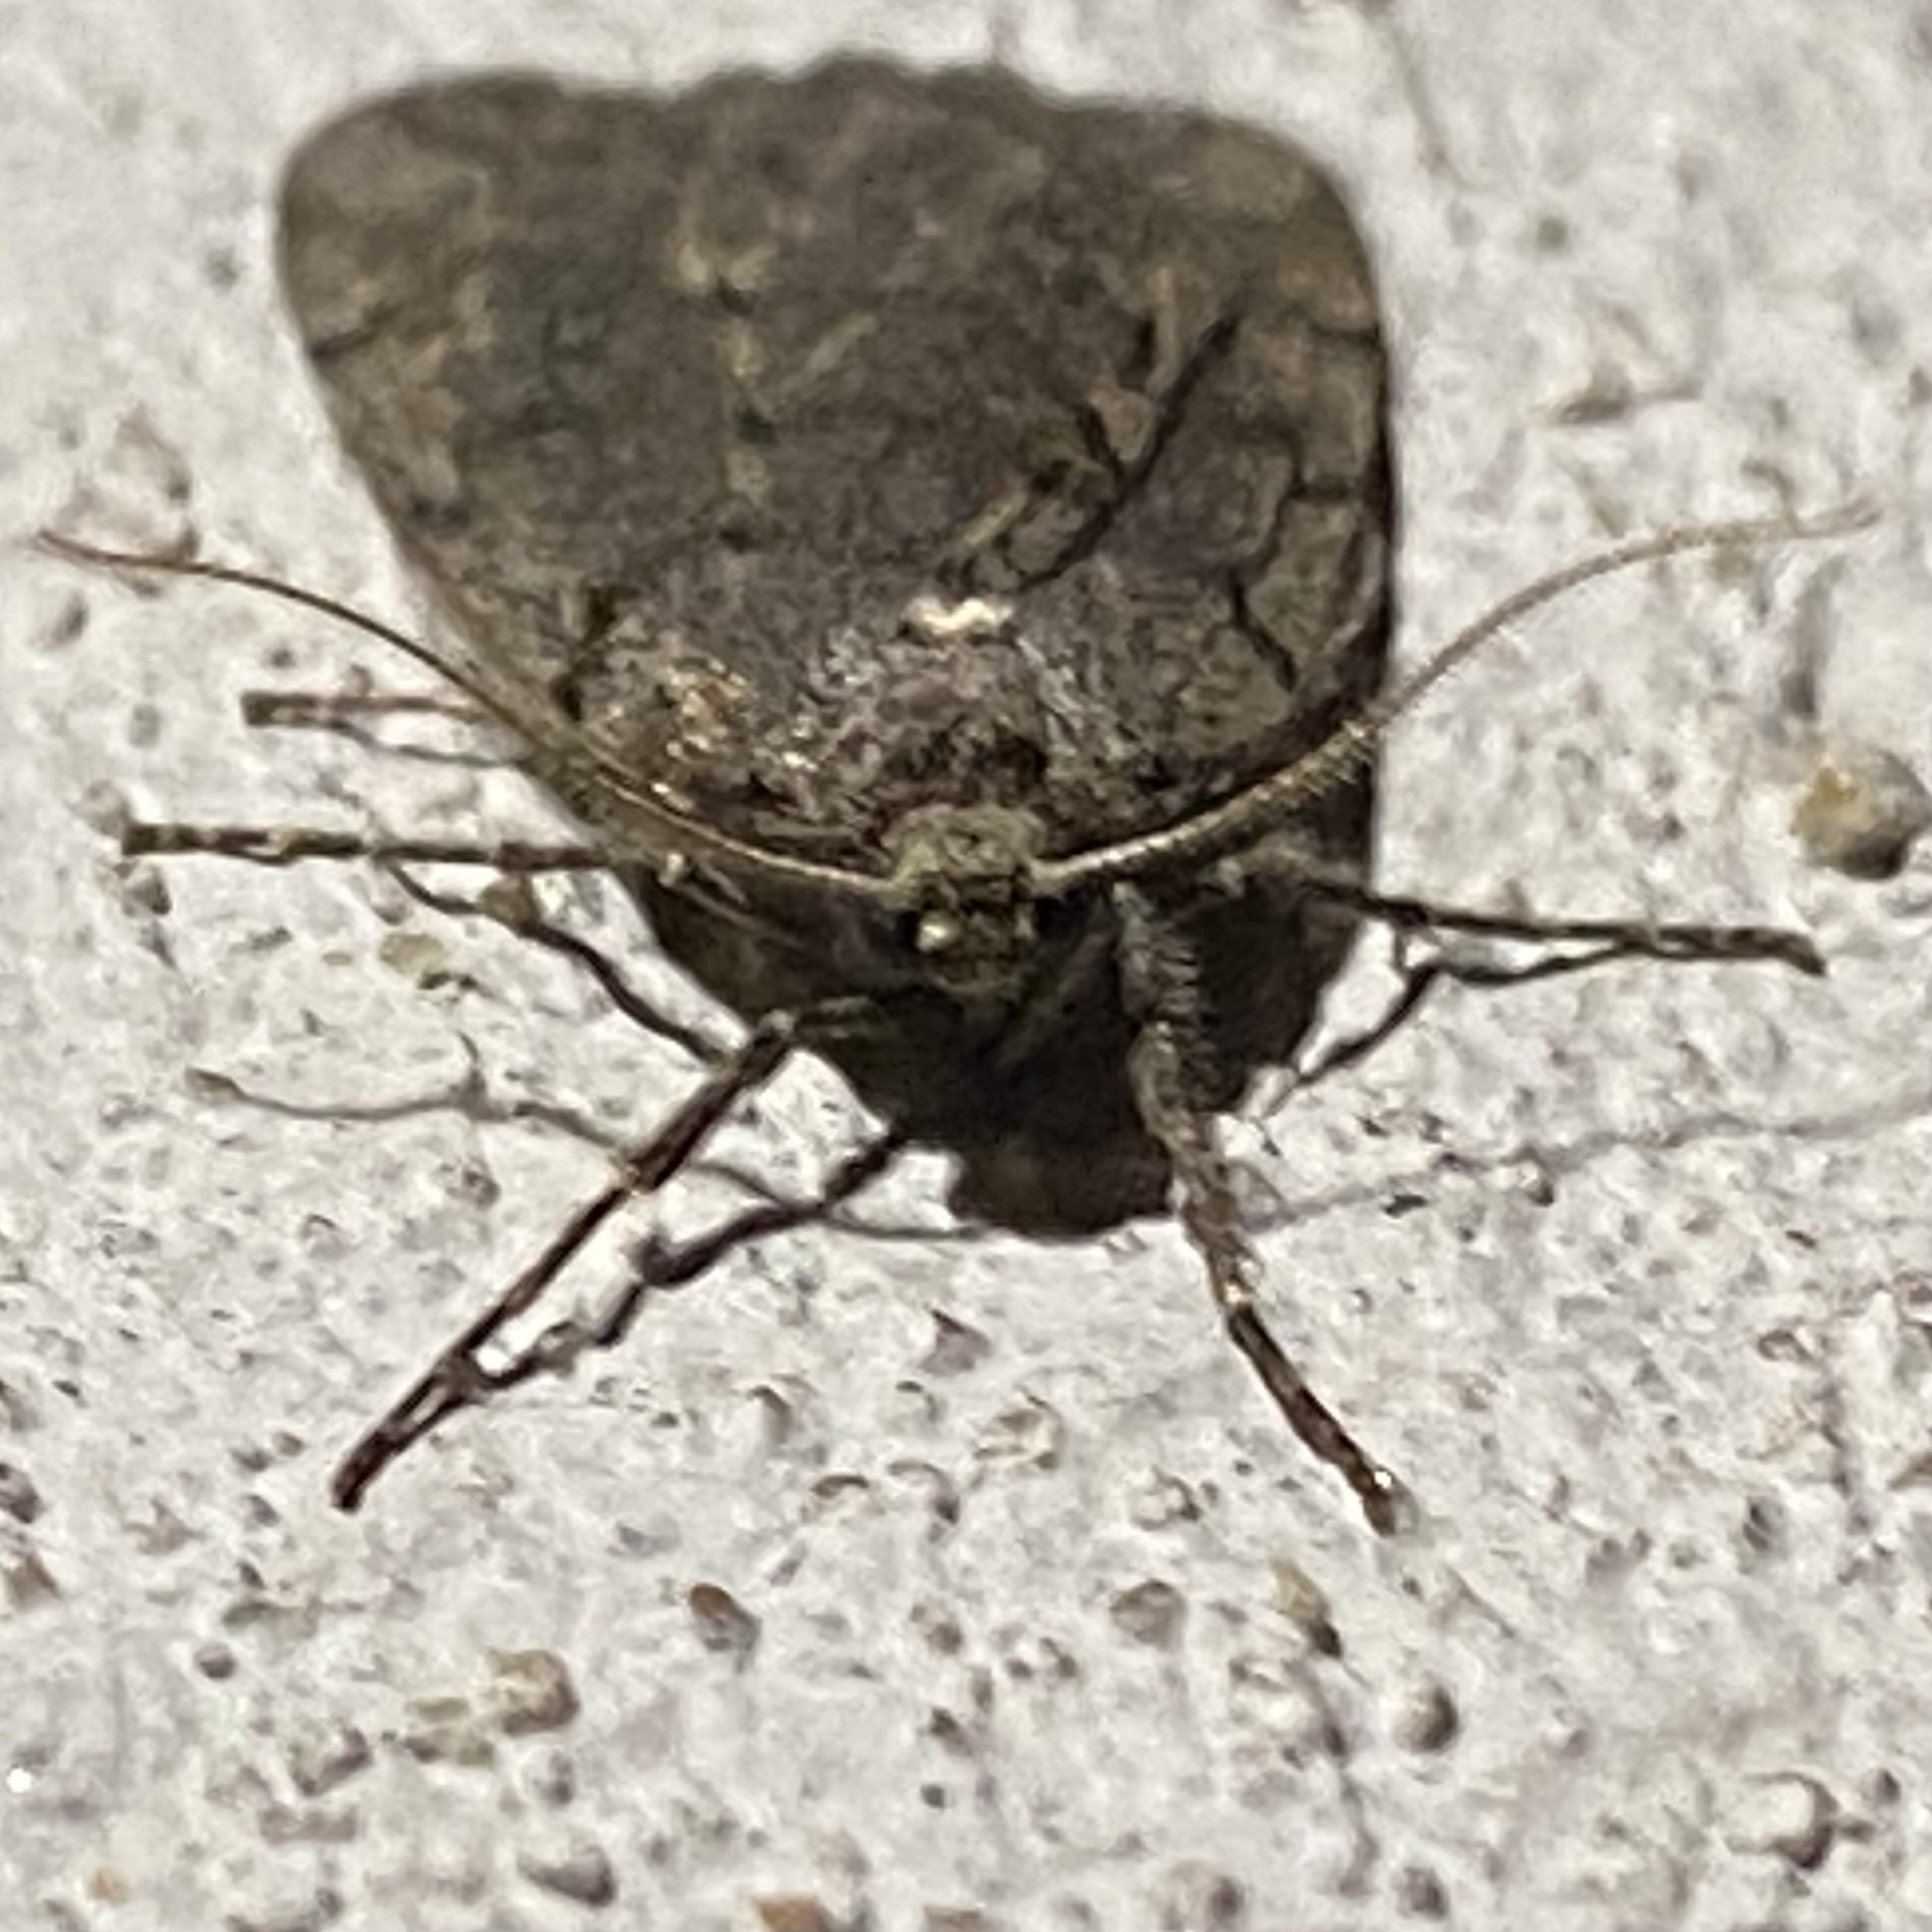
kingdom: Animalia
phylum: Arthropoda
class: Insecta
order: Lepidoptera
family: Geometridae
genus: Paleacrita
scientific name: Paleacrita vernata
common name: Spring cankerworm
